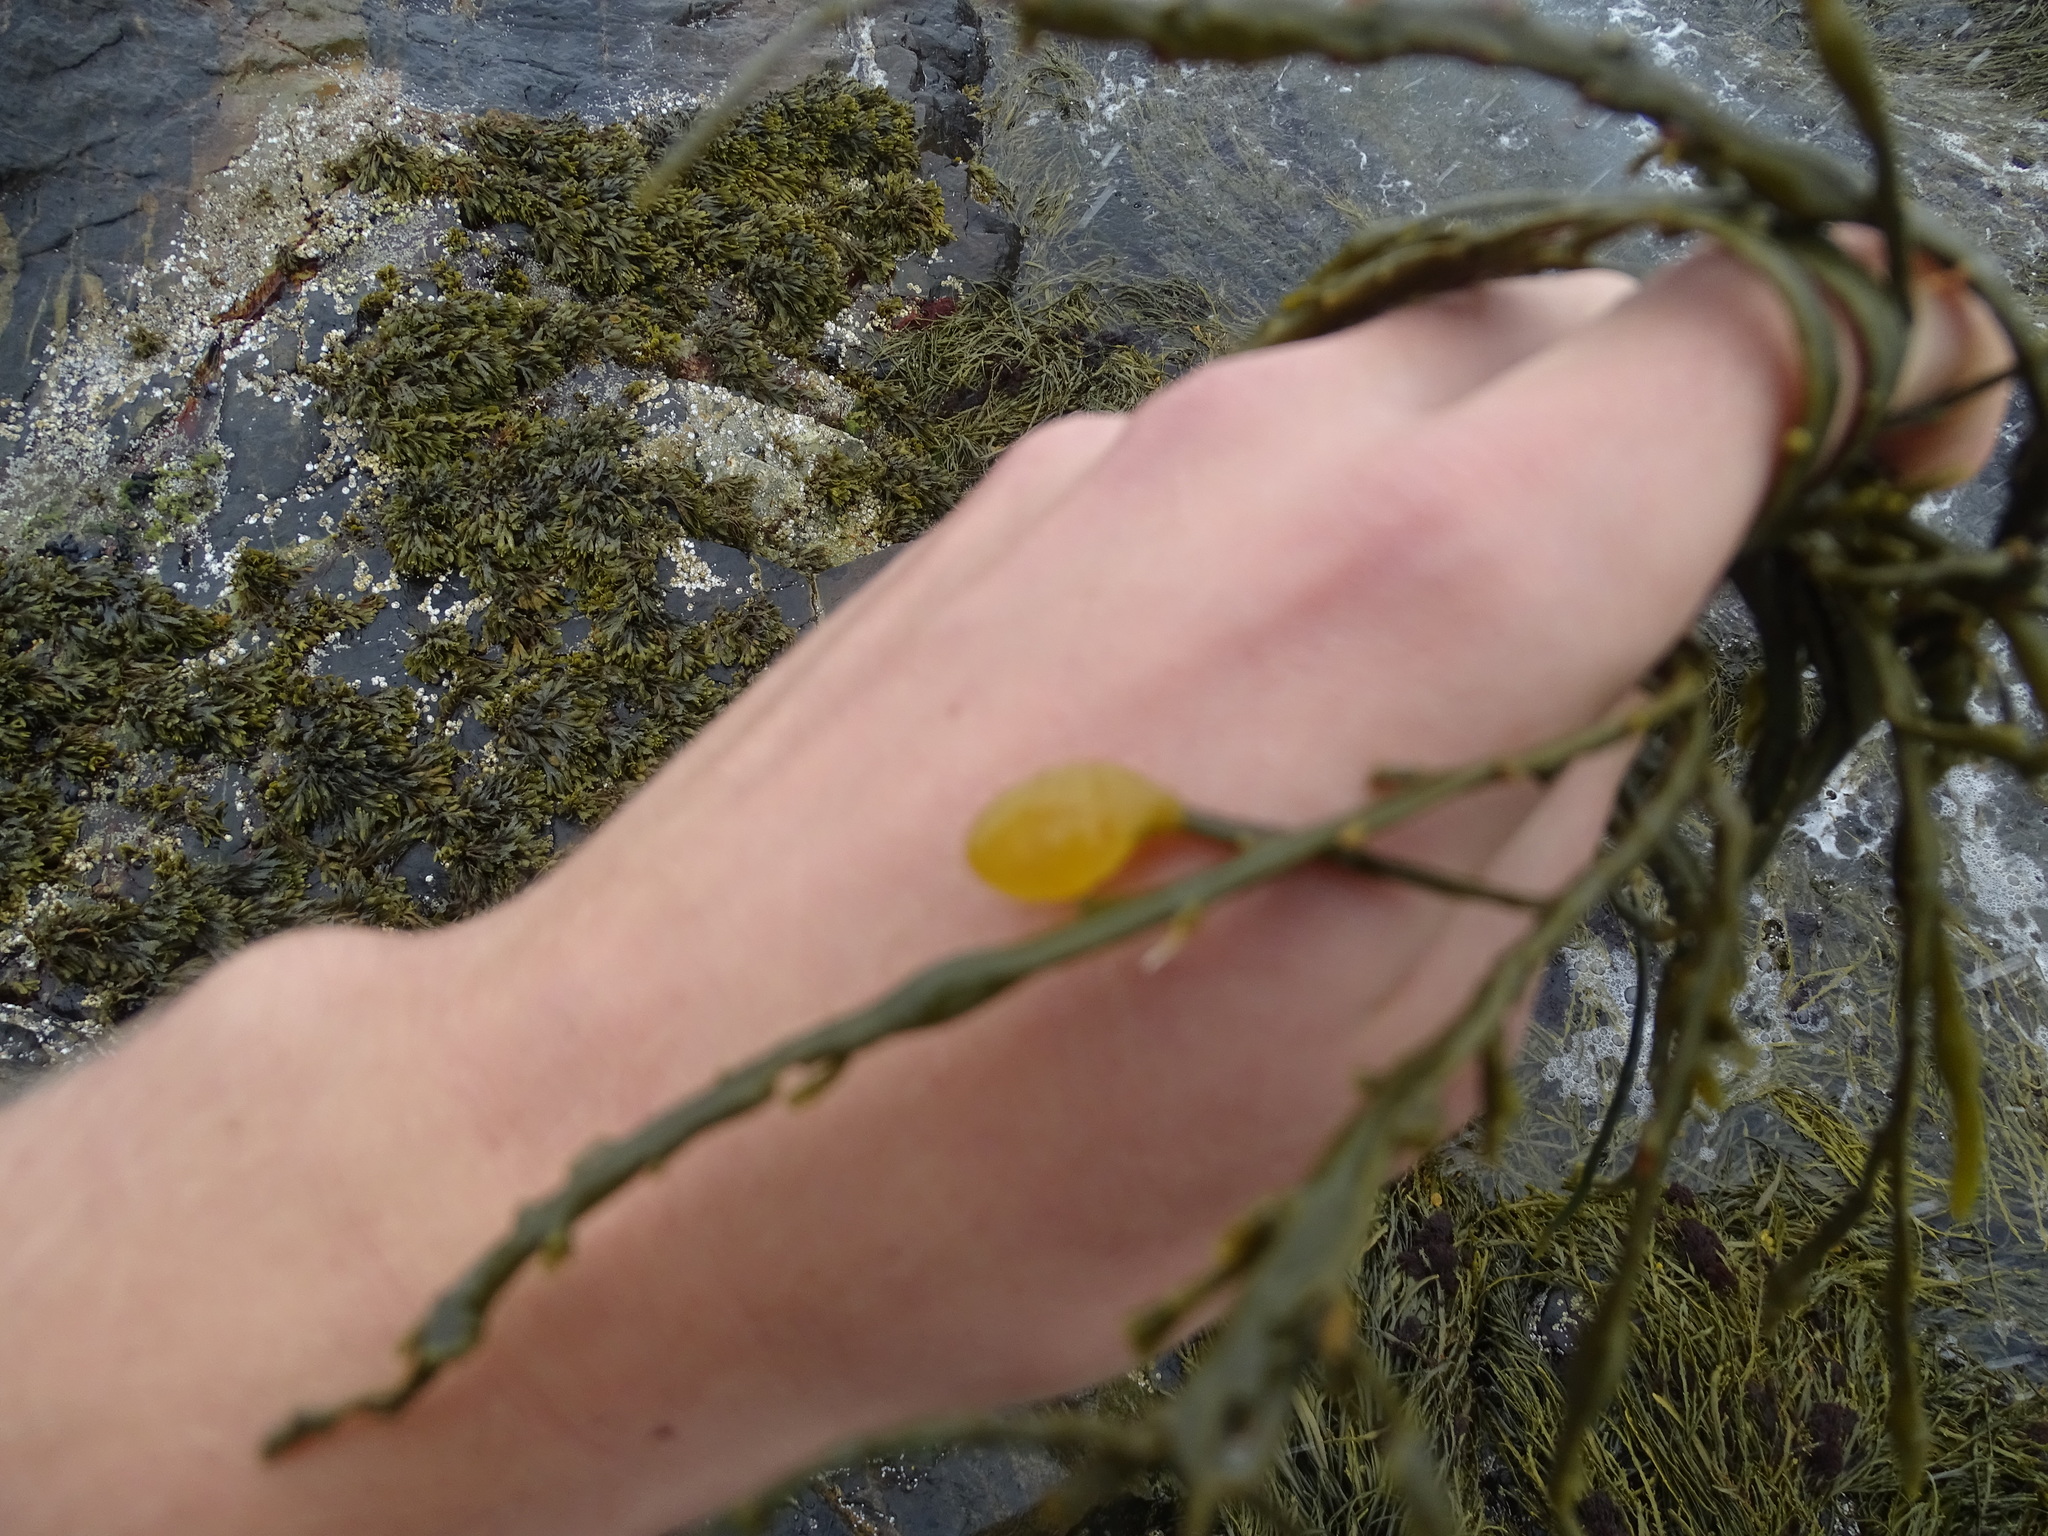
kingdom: Chromista
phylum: Ochrophyta
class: Phaeophyceae
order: Fucales
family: Fucaceae
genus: Ascophyllum
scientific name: Ascophyllum nodosum
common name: Knotted wrack
